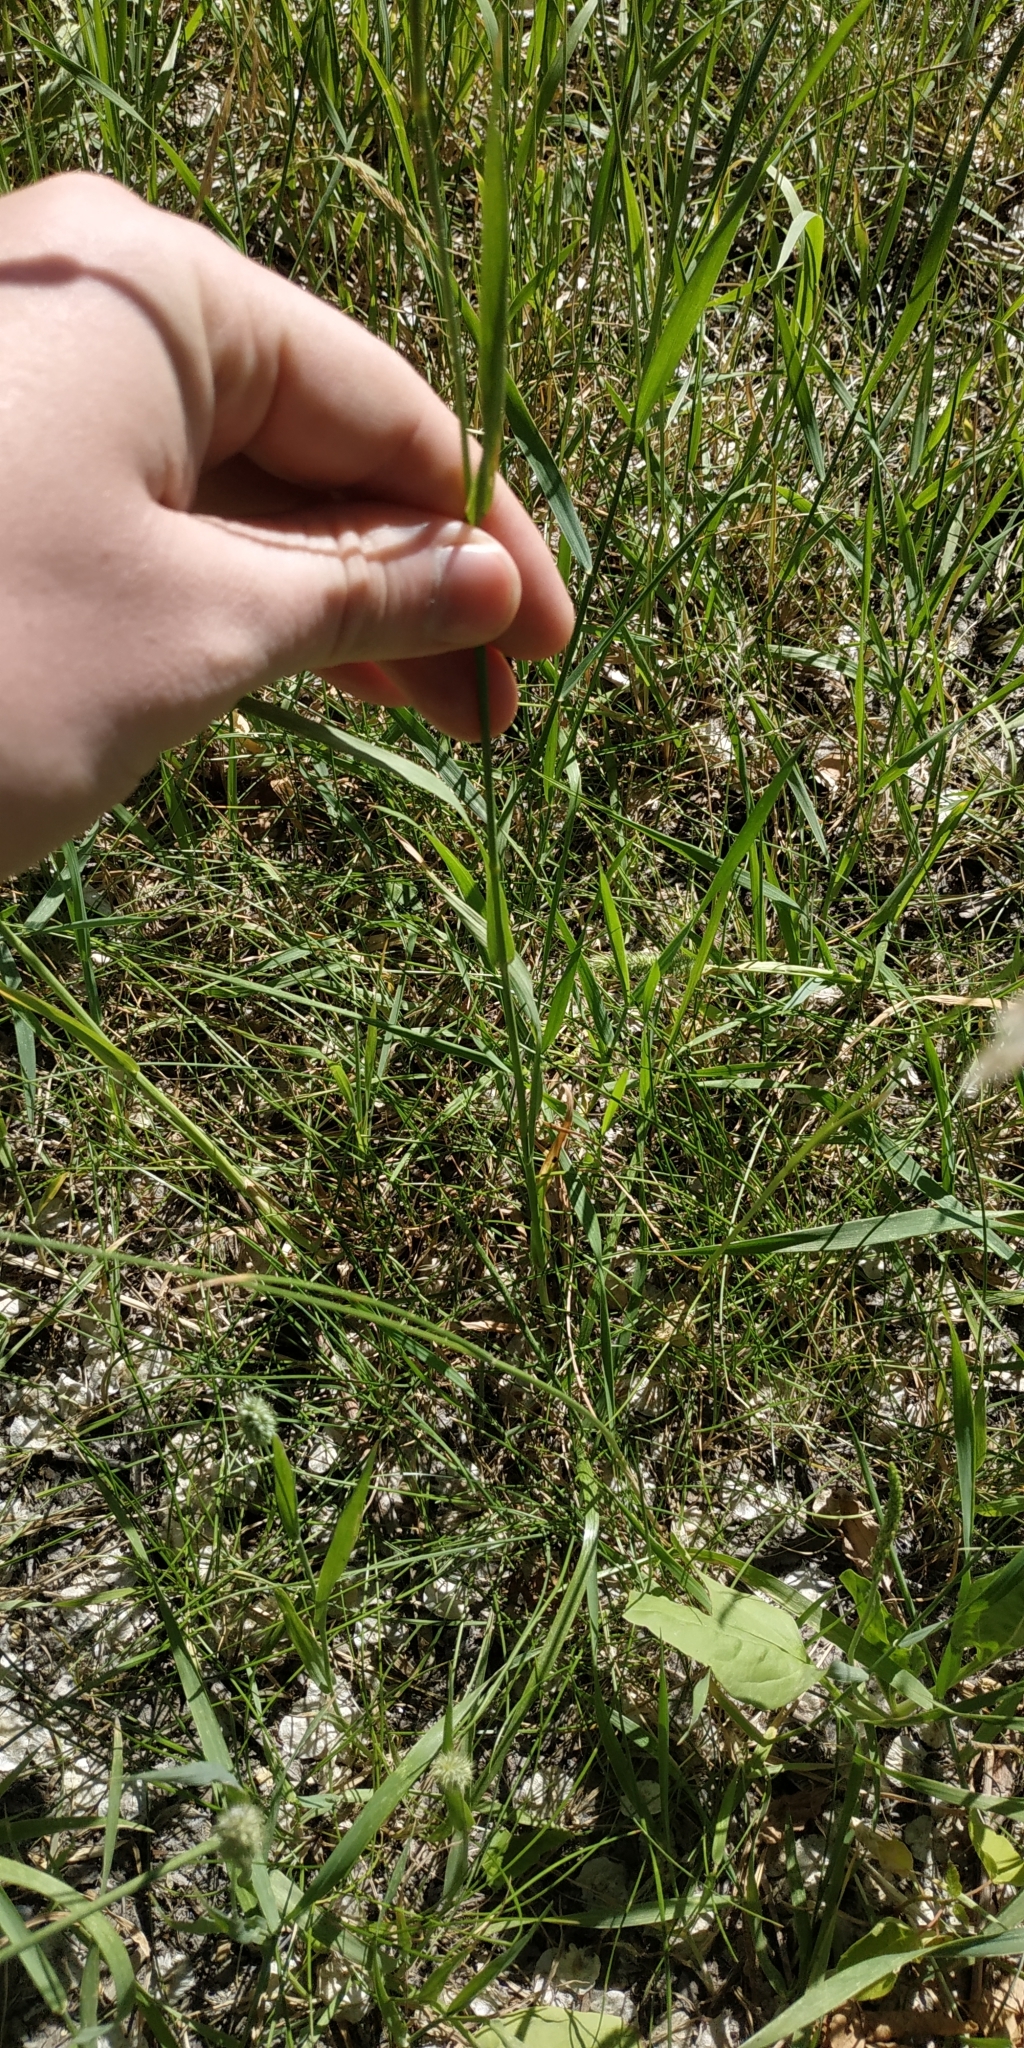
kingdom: Plantae
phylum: Tracheophyta
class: Liliopsida
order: Poales
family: Poaceae
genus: Phleum
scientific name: Phleum pratense
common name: Timothy grass
